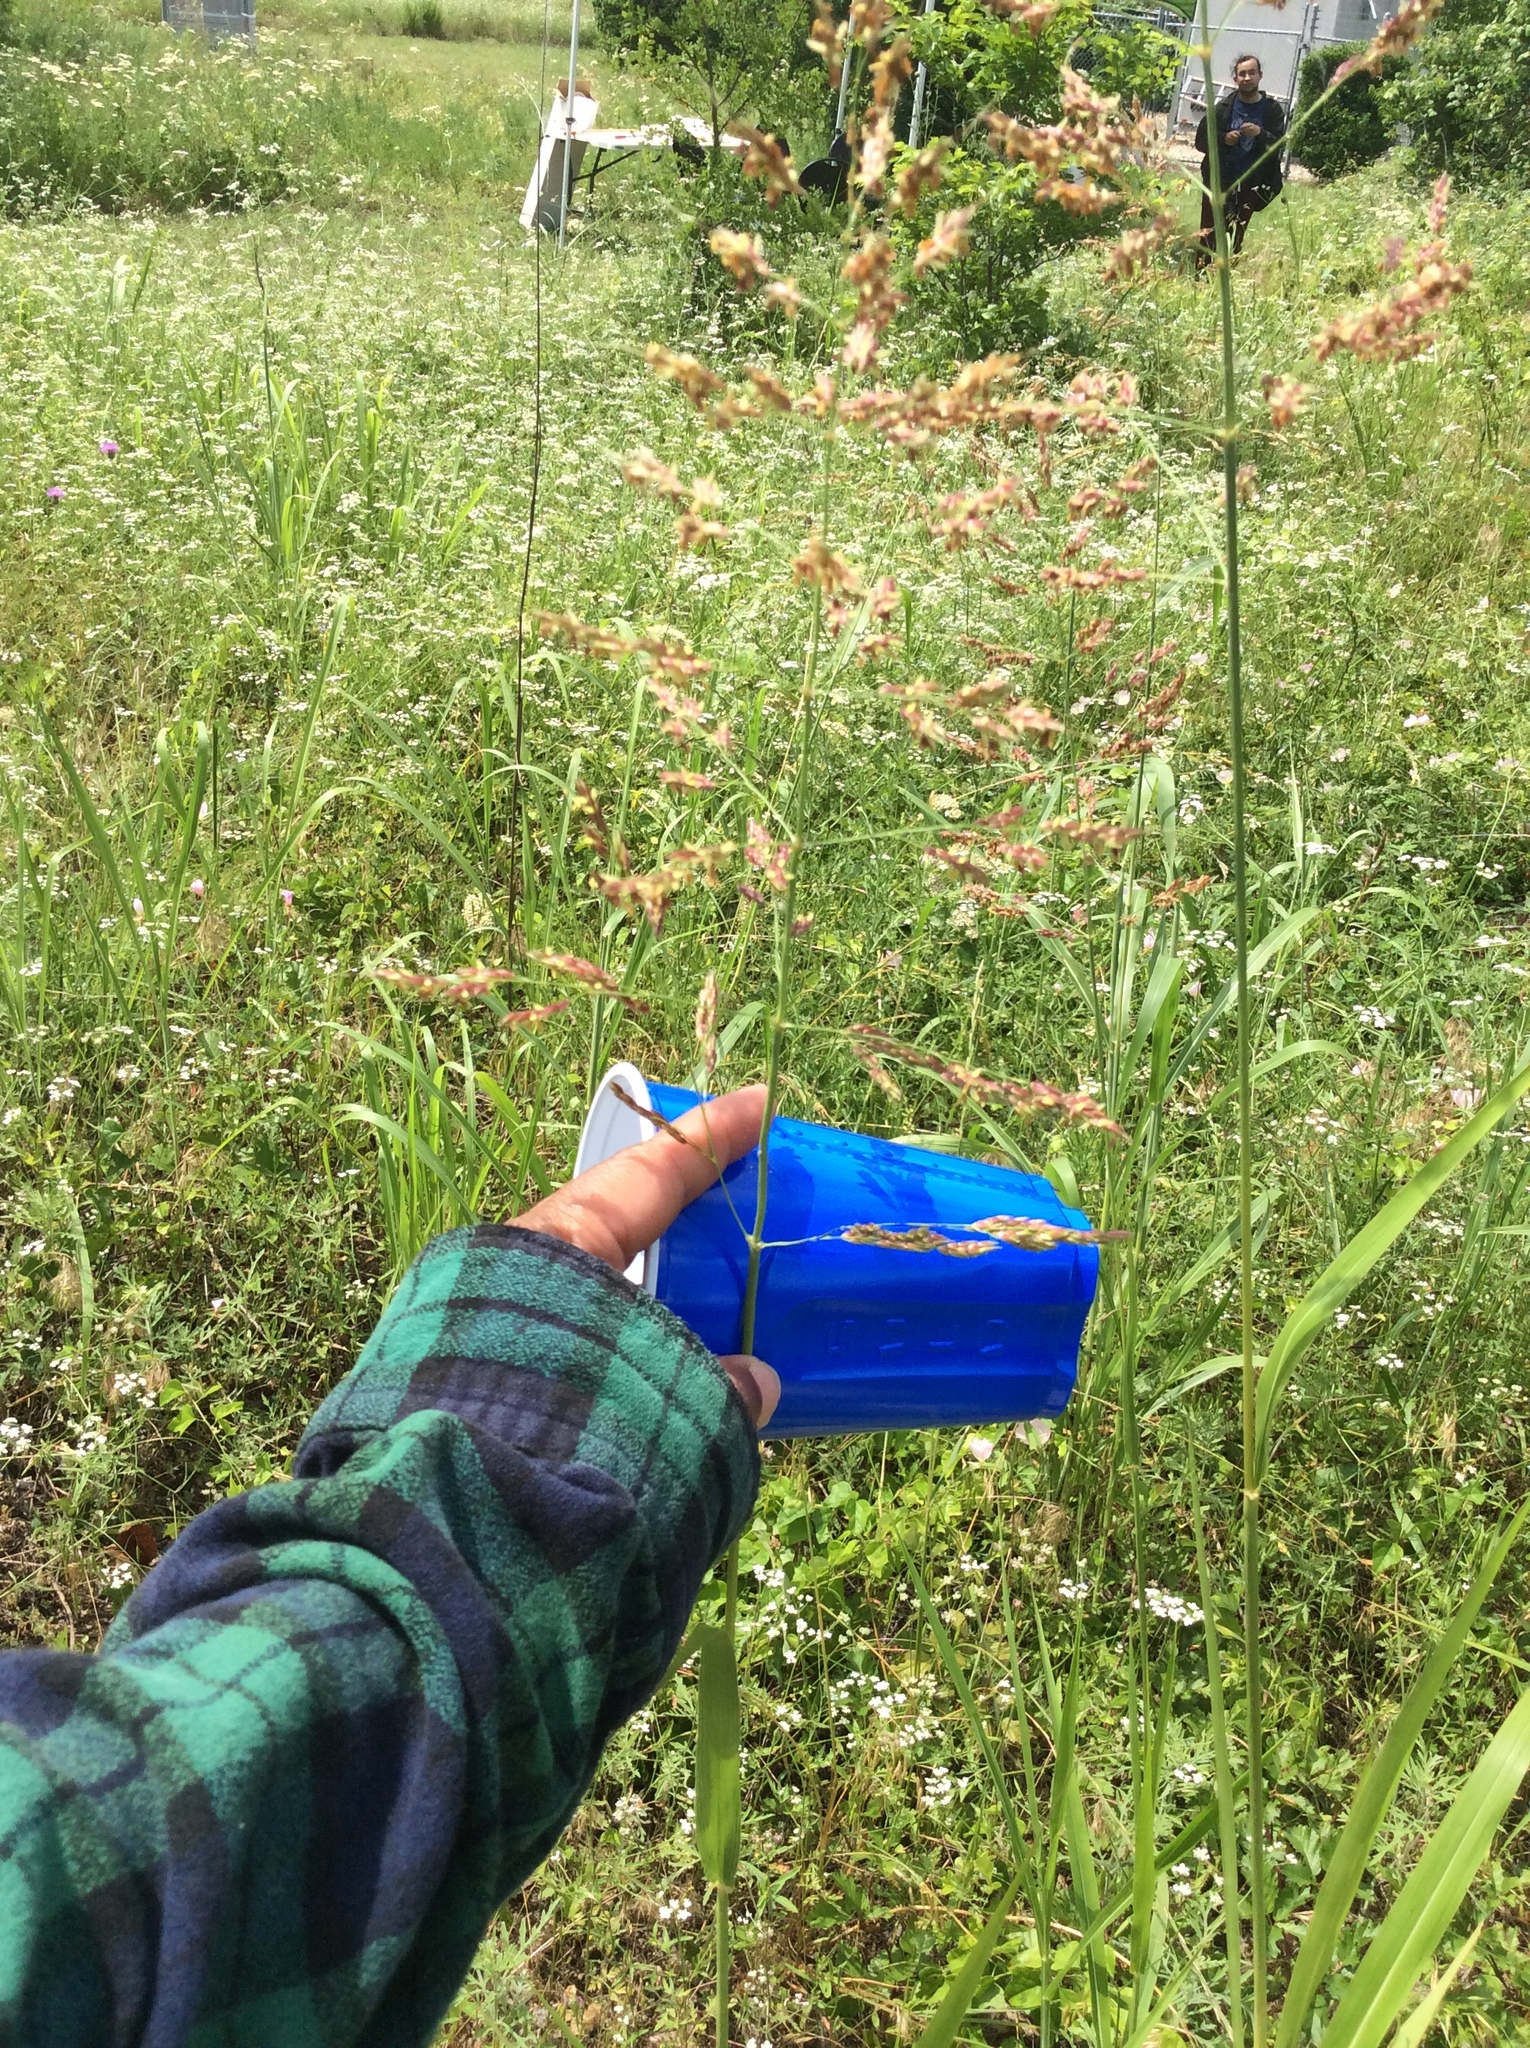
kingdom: Plantae
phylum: Tracheophyta
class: Liliopsida
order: Poales
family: Poaceae
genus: Sorghum
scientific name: Sorghum halepense
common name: Johnson-grass
